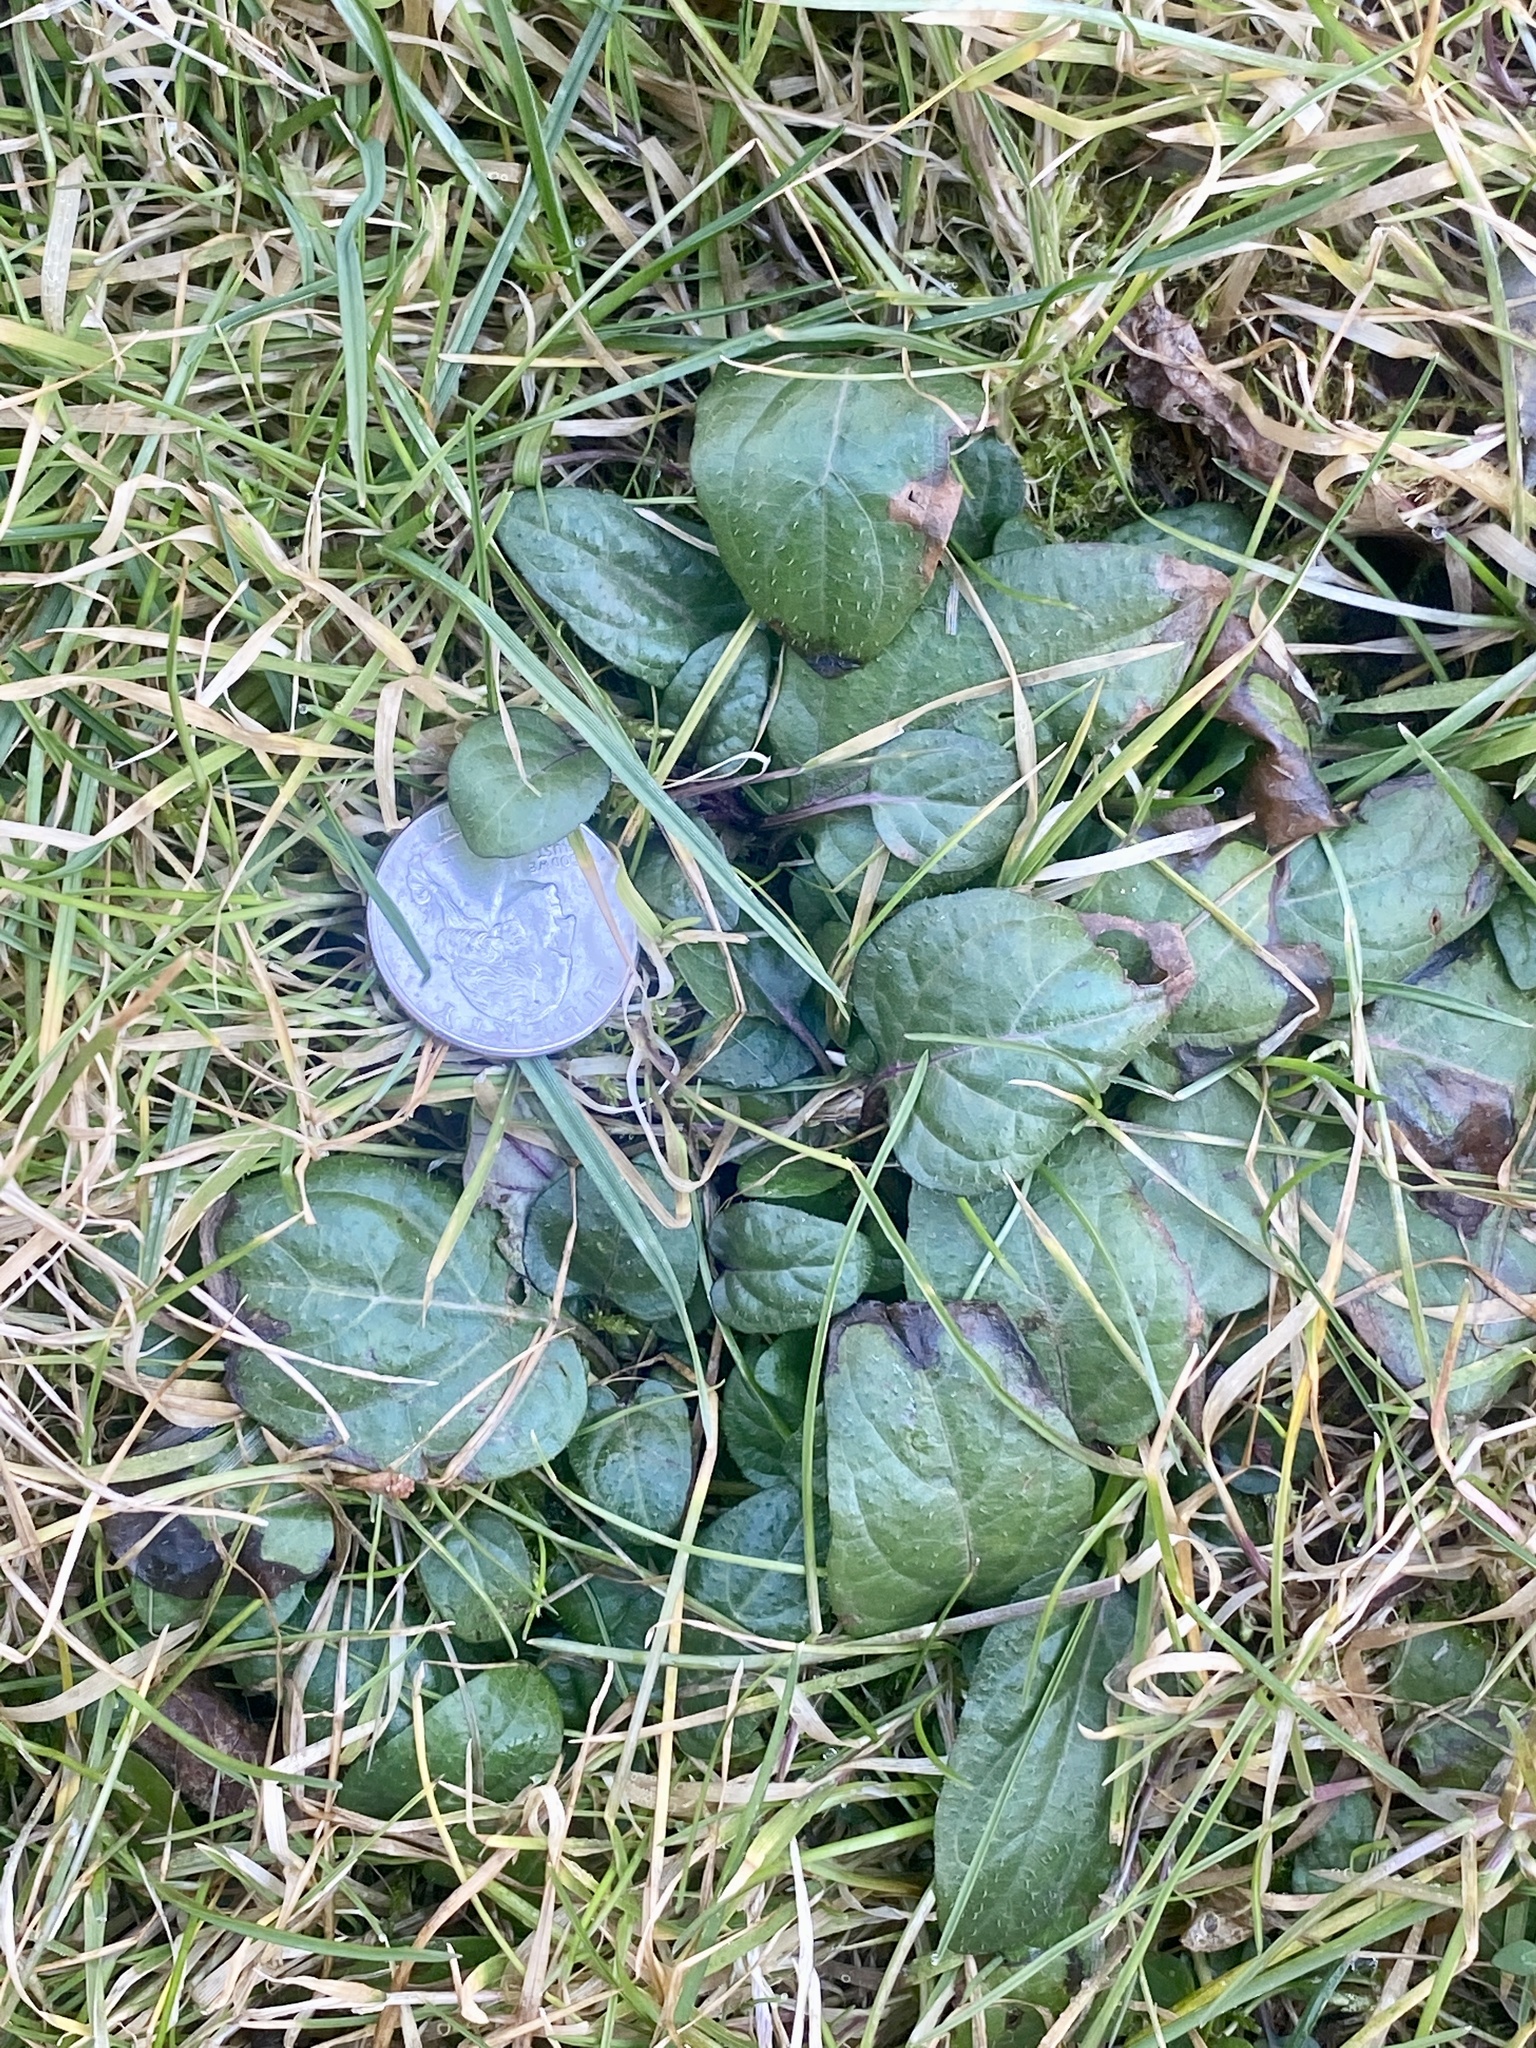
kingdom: Plantae
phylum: Tracheophyta
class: Magnoliopsida
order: Lamiales
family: Lamiaceae
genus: Prunella
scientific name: Prunella vulgaris
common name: Heal-all
